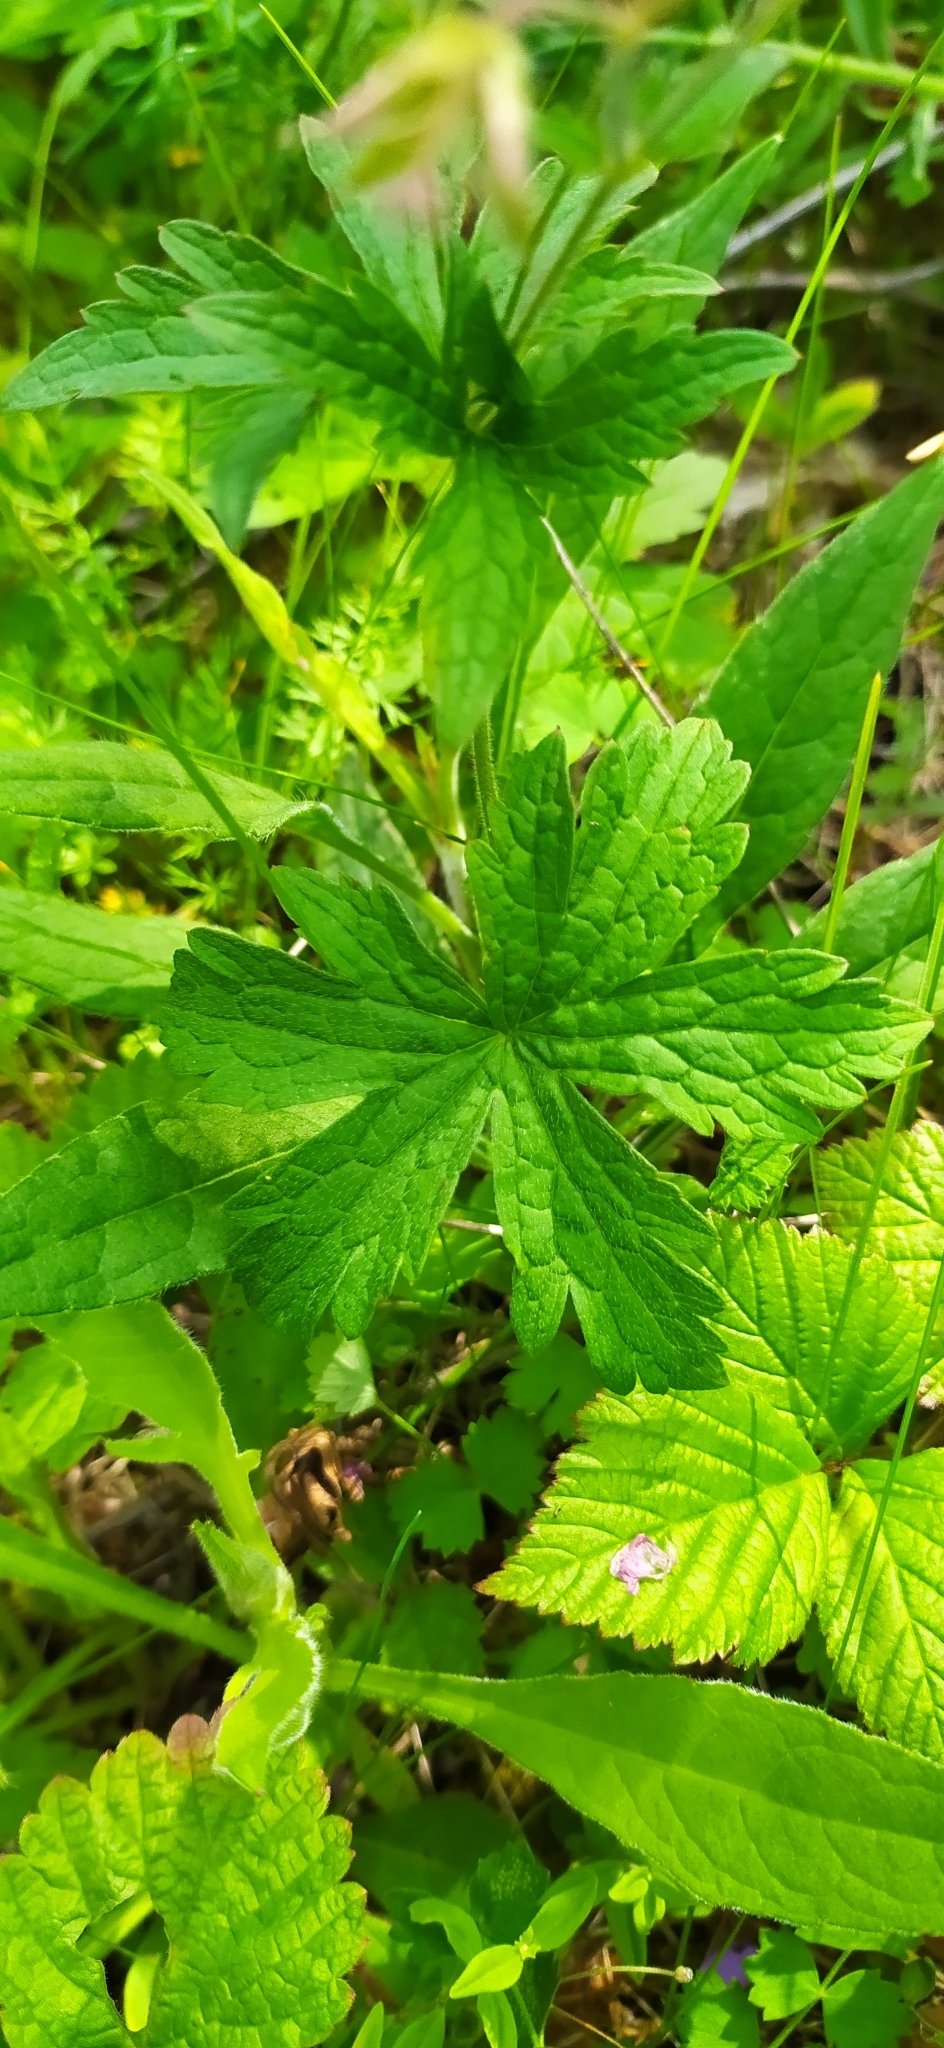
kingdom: Plantae
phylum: Tracheophyta
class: Magnoliopsida
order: Geraniales
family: Geraniaceae
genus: Geranium
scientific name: Geranium sylvaticum
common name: Wood crane's-bill
